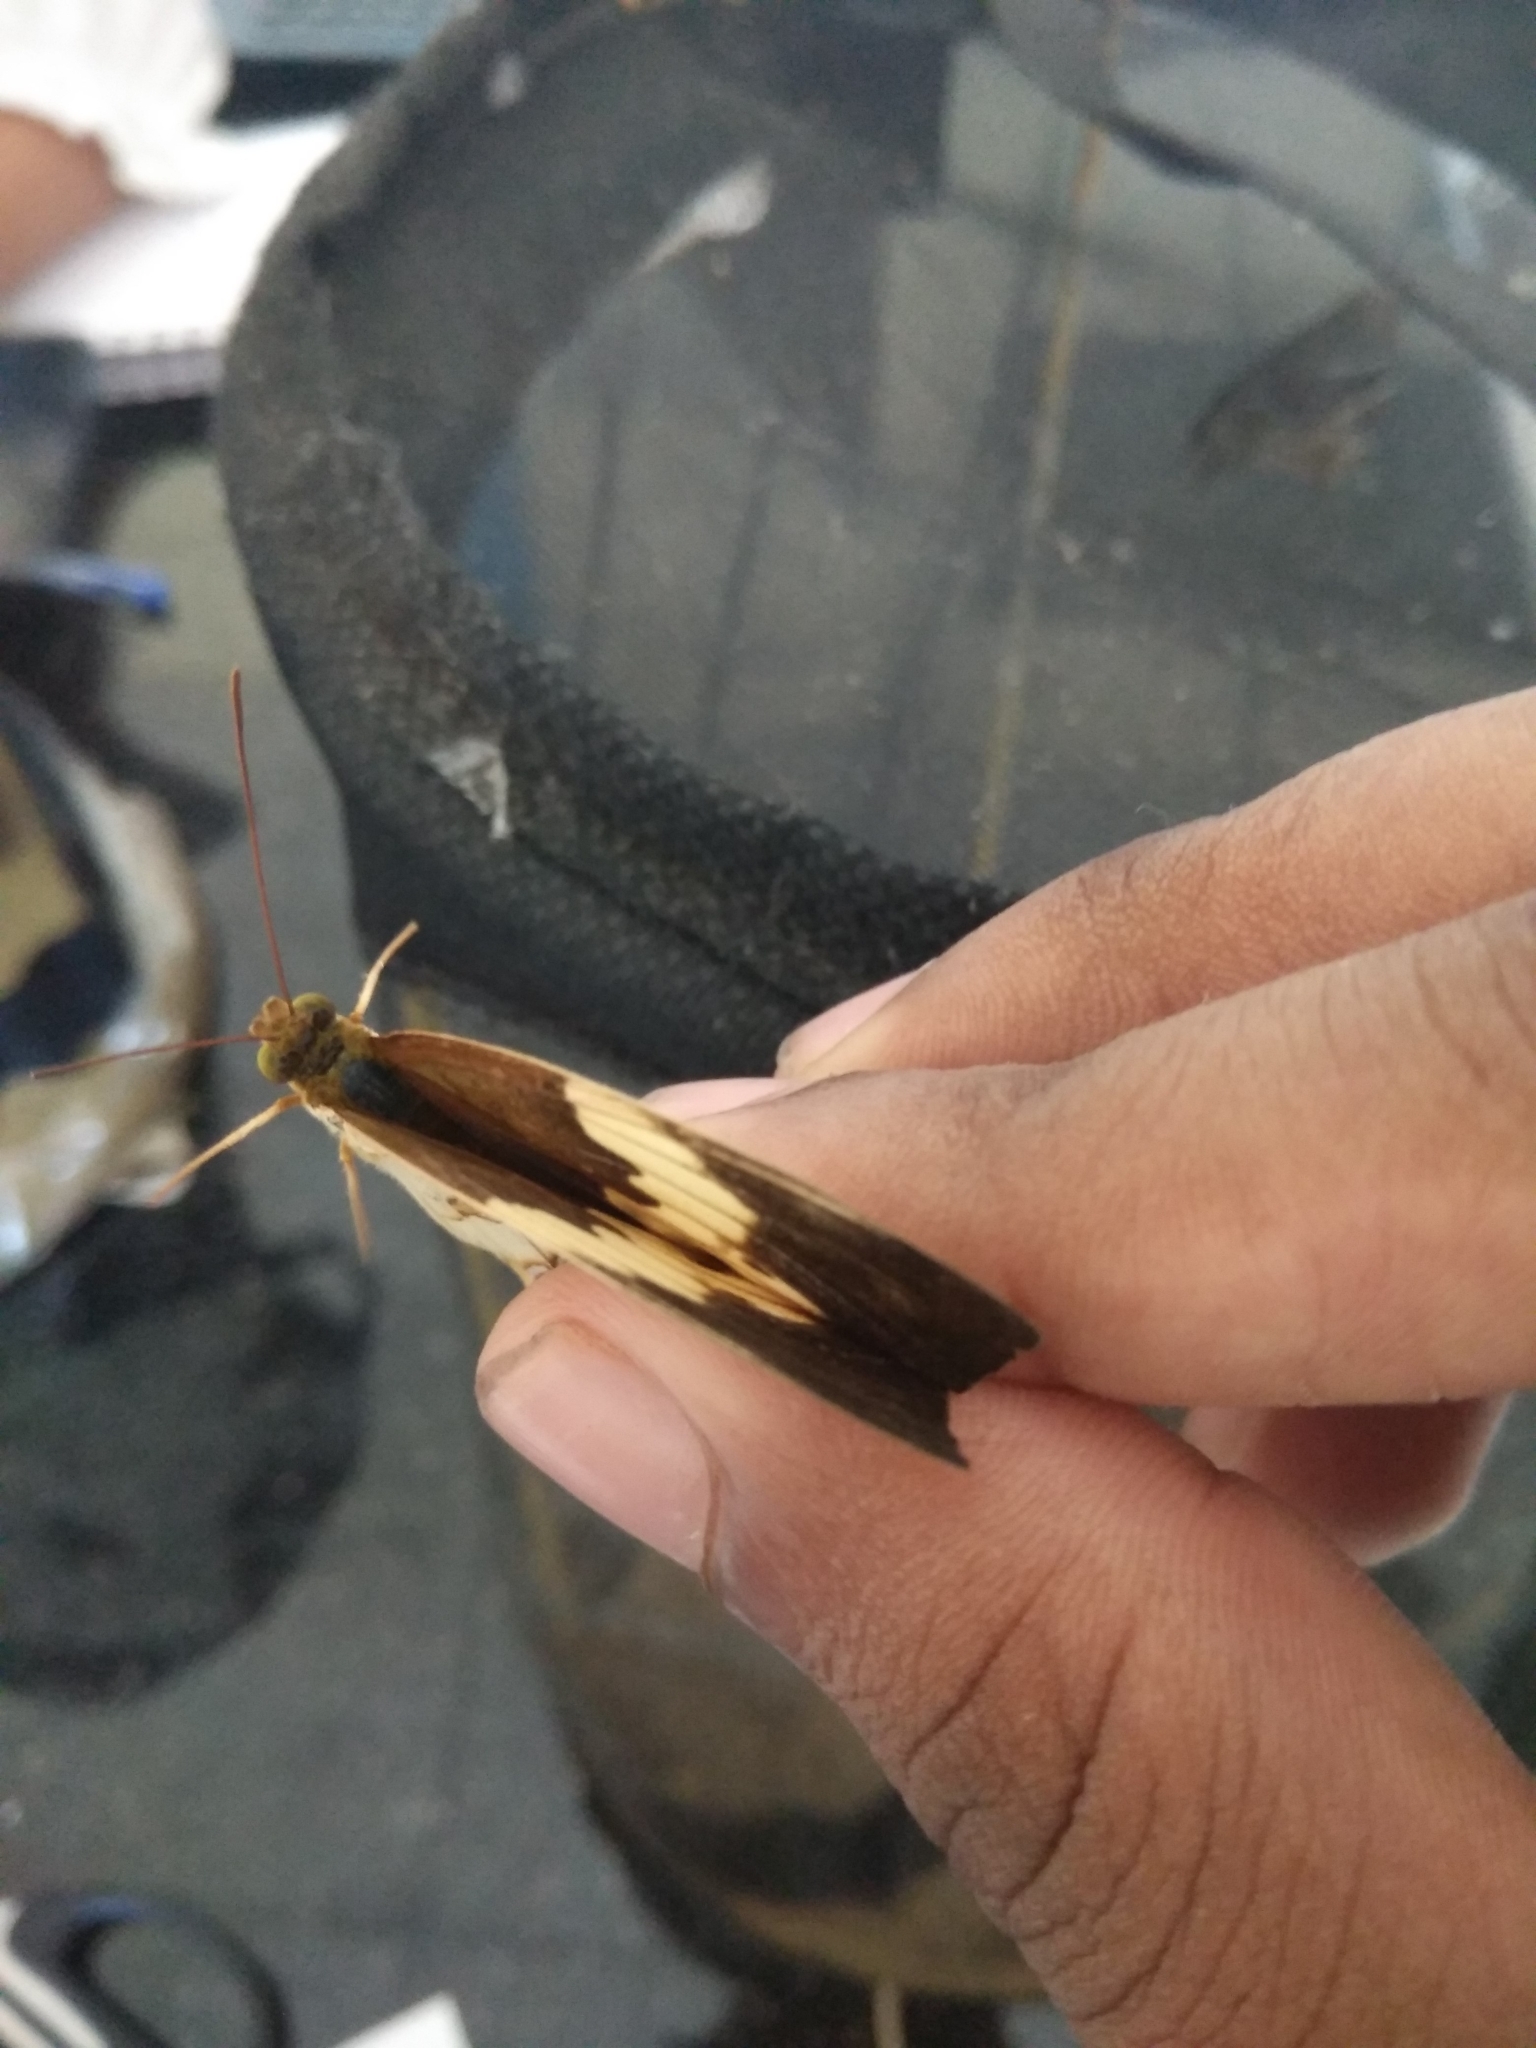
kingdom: Animalia
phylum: Arthropoda
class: Insecta
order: Lepidoptera
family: Nymphalidae
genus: Cupha
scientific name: Cupha erymanthis
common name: Rustic
